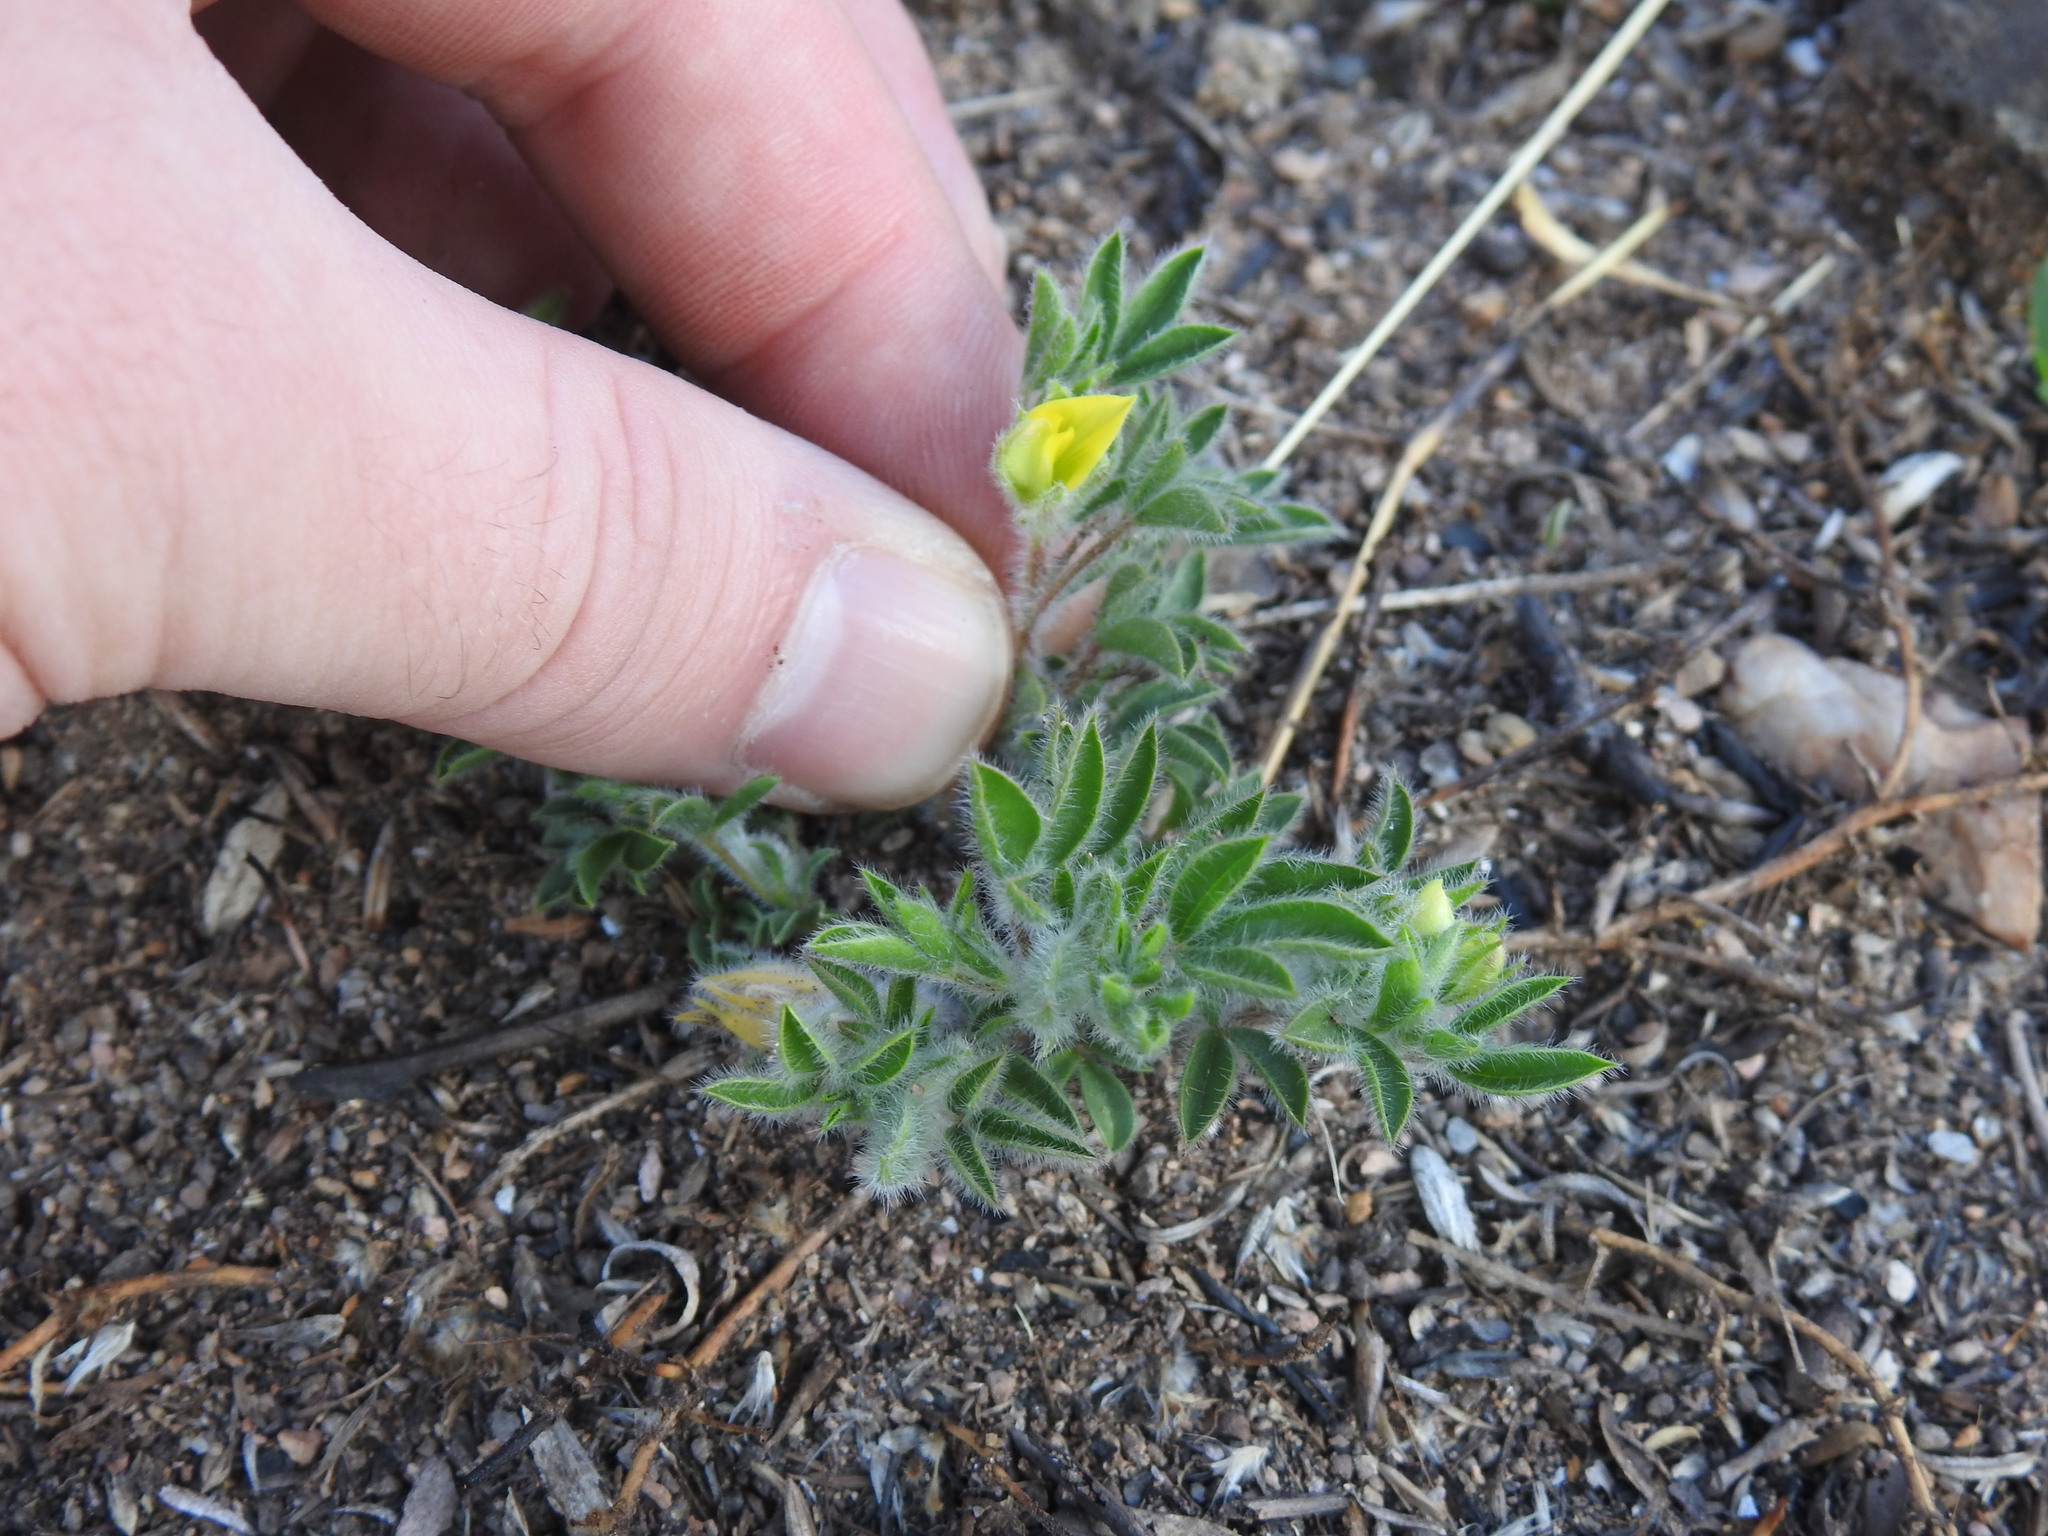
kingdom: Plantae
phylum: Tracheophyta
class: Magnoliopsida
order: Fabales
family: Fabaceae
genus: Leobordea
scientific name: Leobordea eriantha
